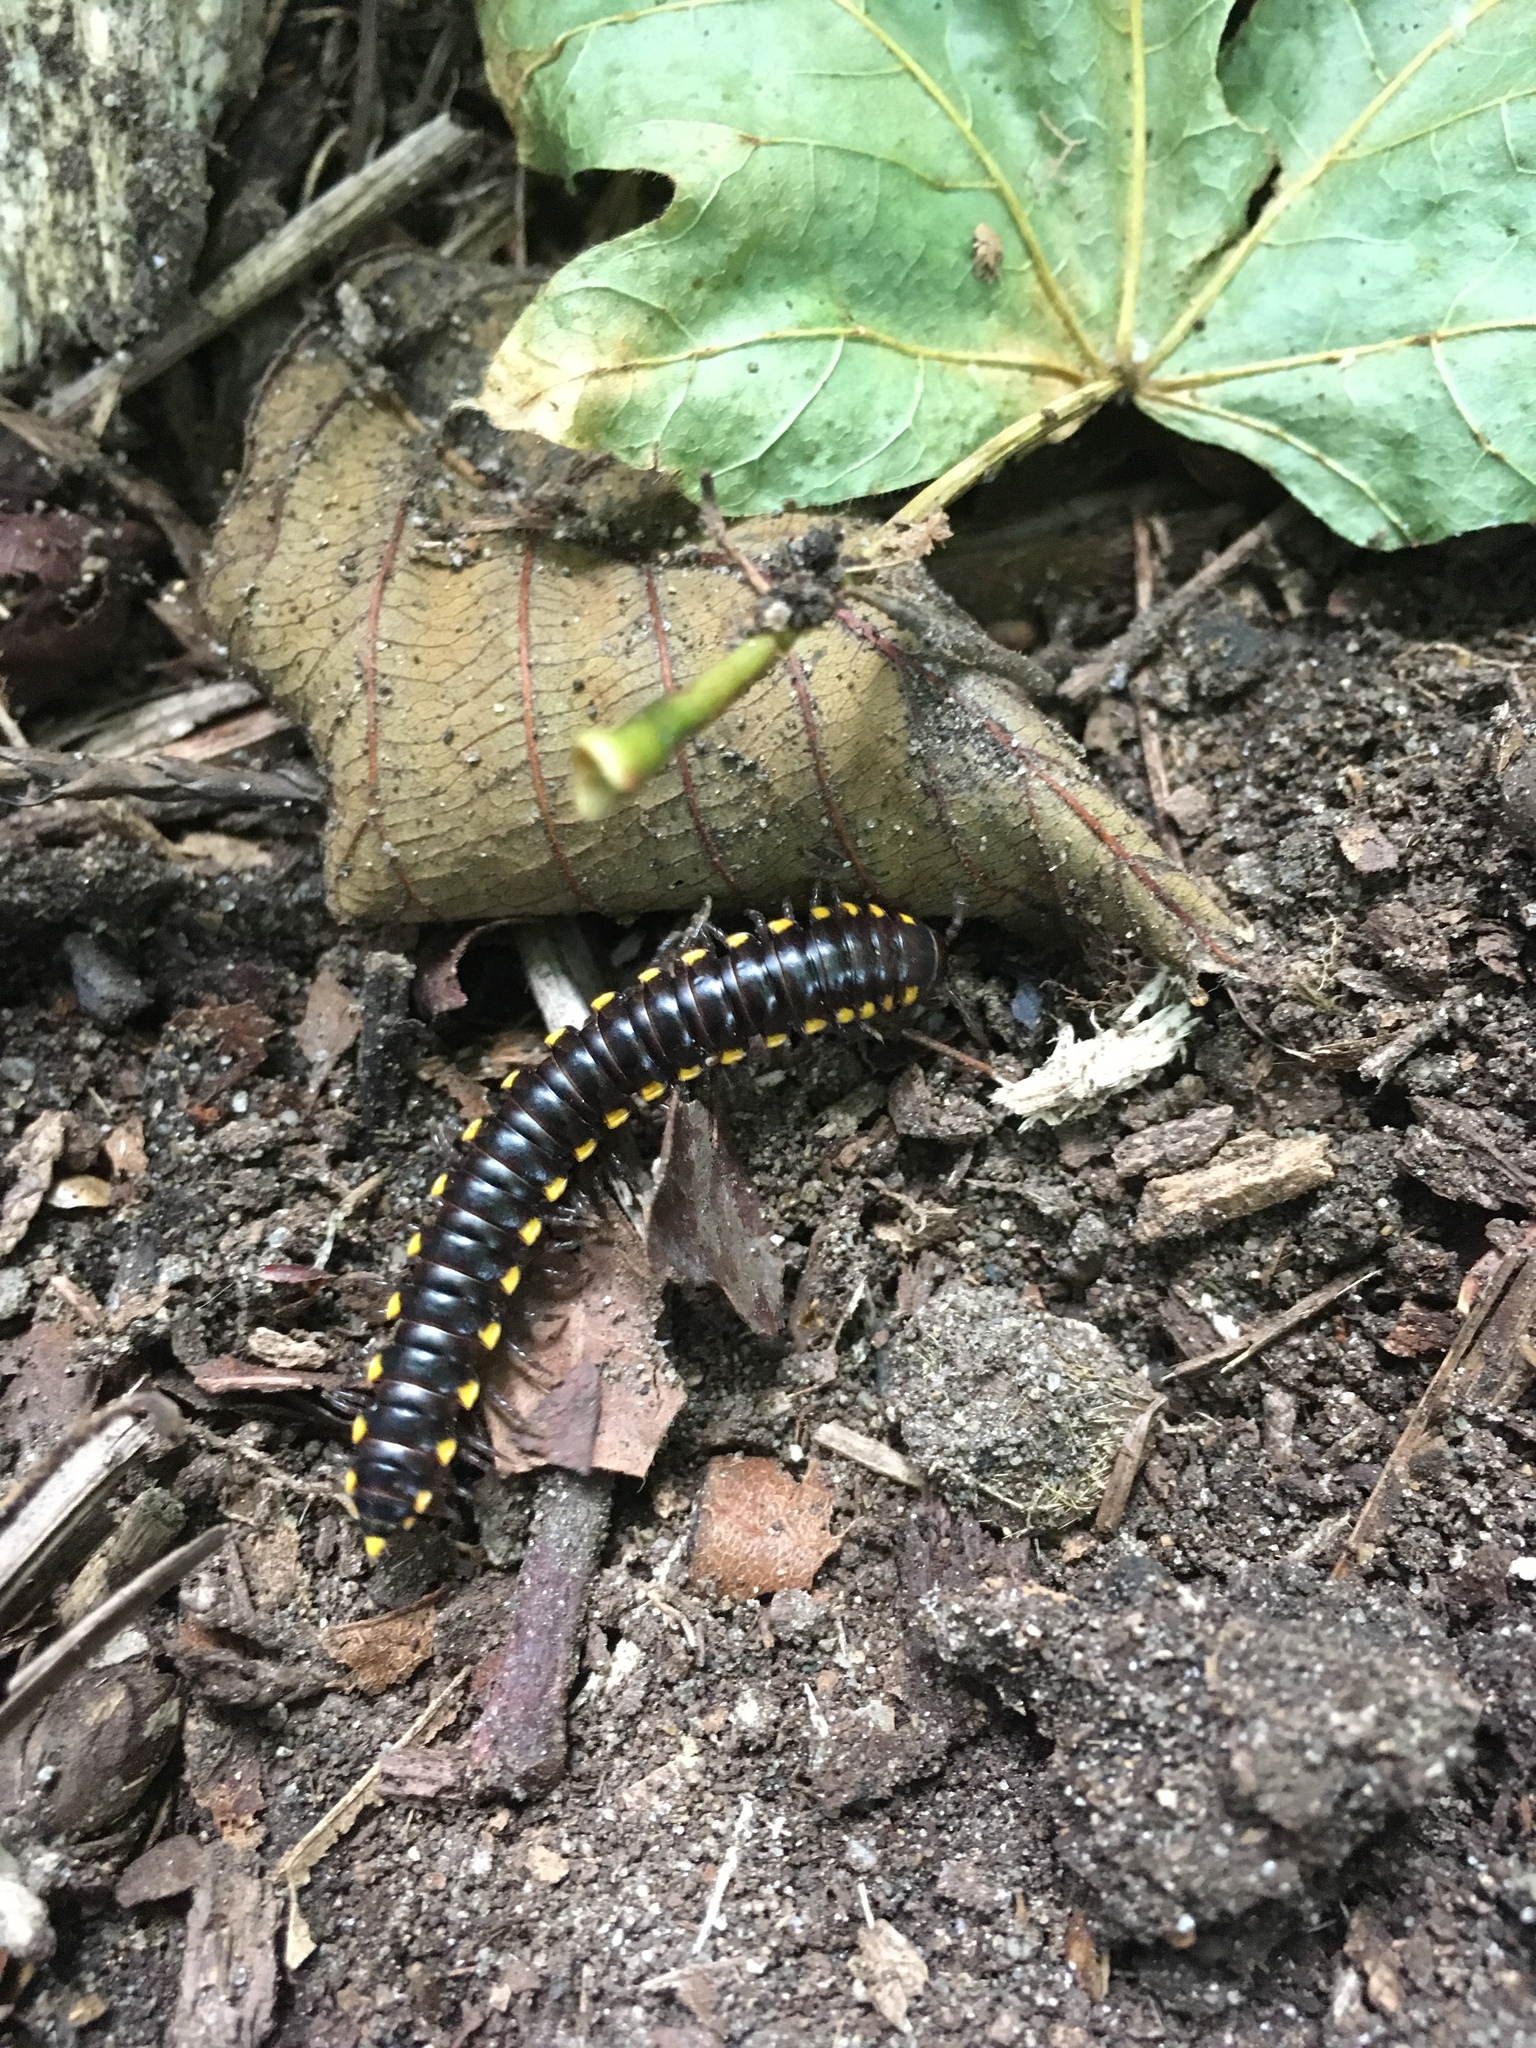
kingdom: Animalia
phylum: Arthropoda
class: Diplopoda
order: Polydesmida
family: Xystodesmidae
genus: Harpaphe
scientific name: Harpaphe haydeniana
